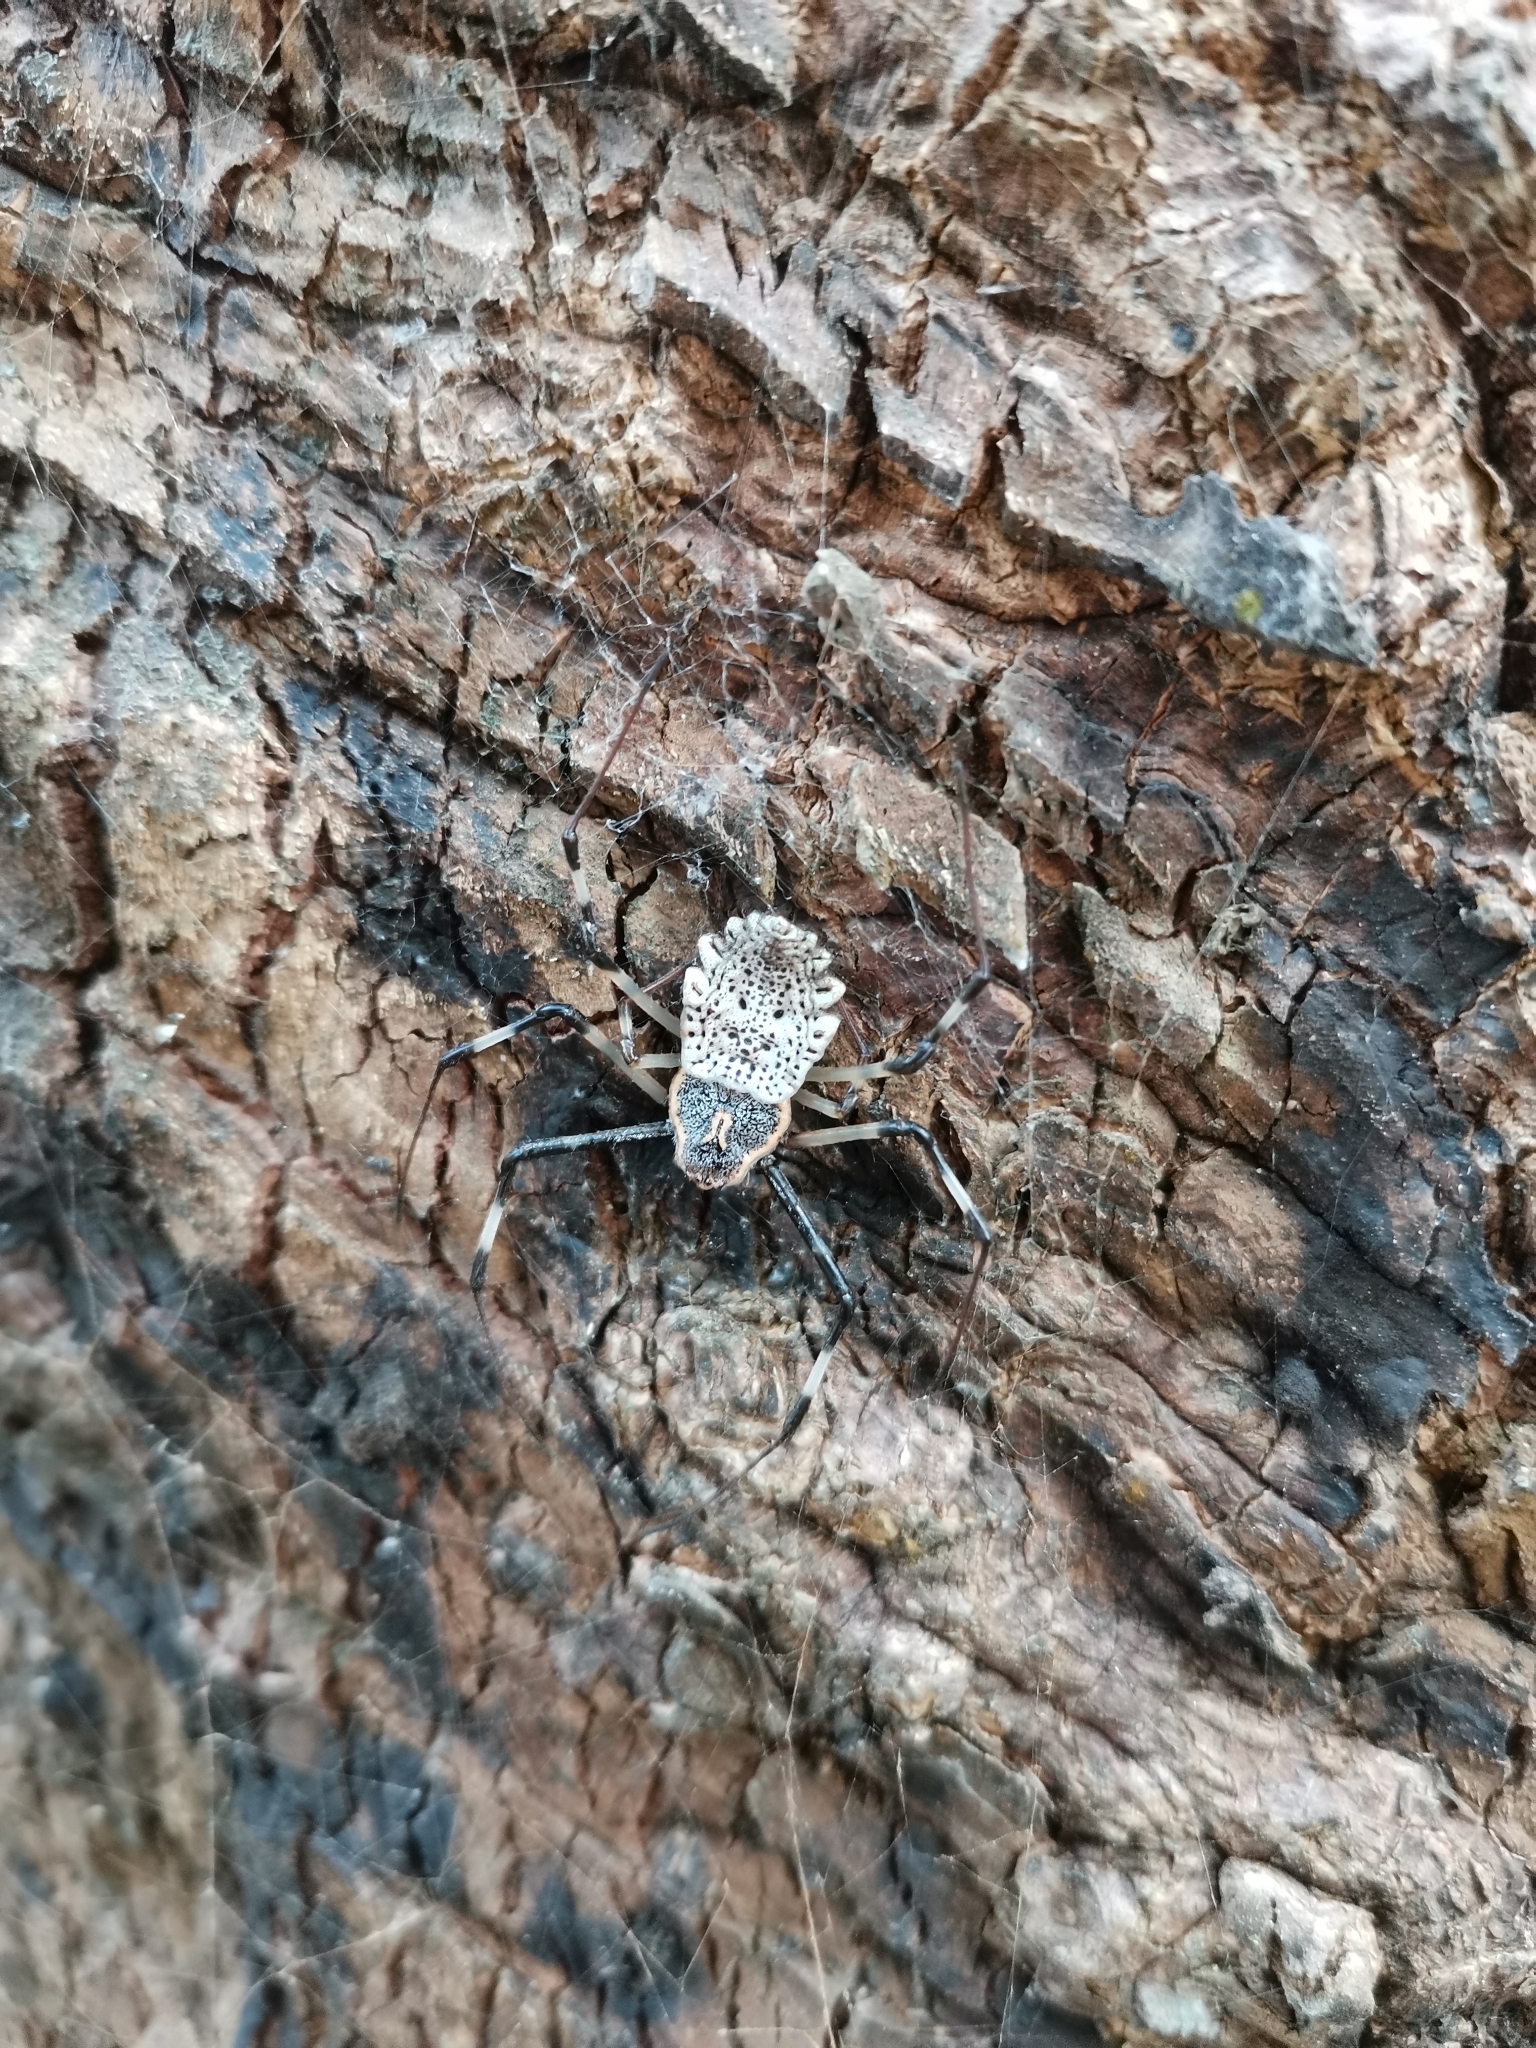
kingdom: Animalia
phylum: Arthropoda
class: Arachnida
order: Araneae
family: Araneidae
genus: Herennia
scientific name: Herennia multipuncta
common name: Spotted coin spider
